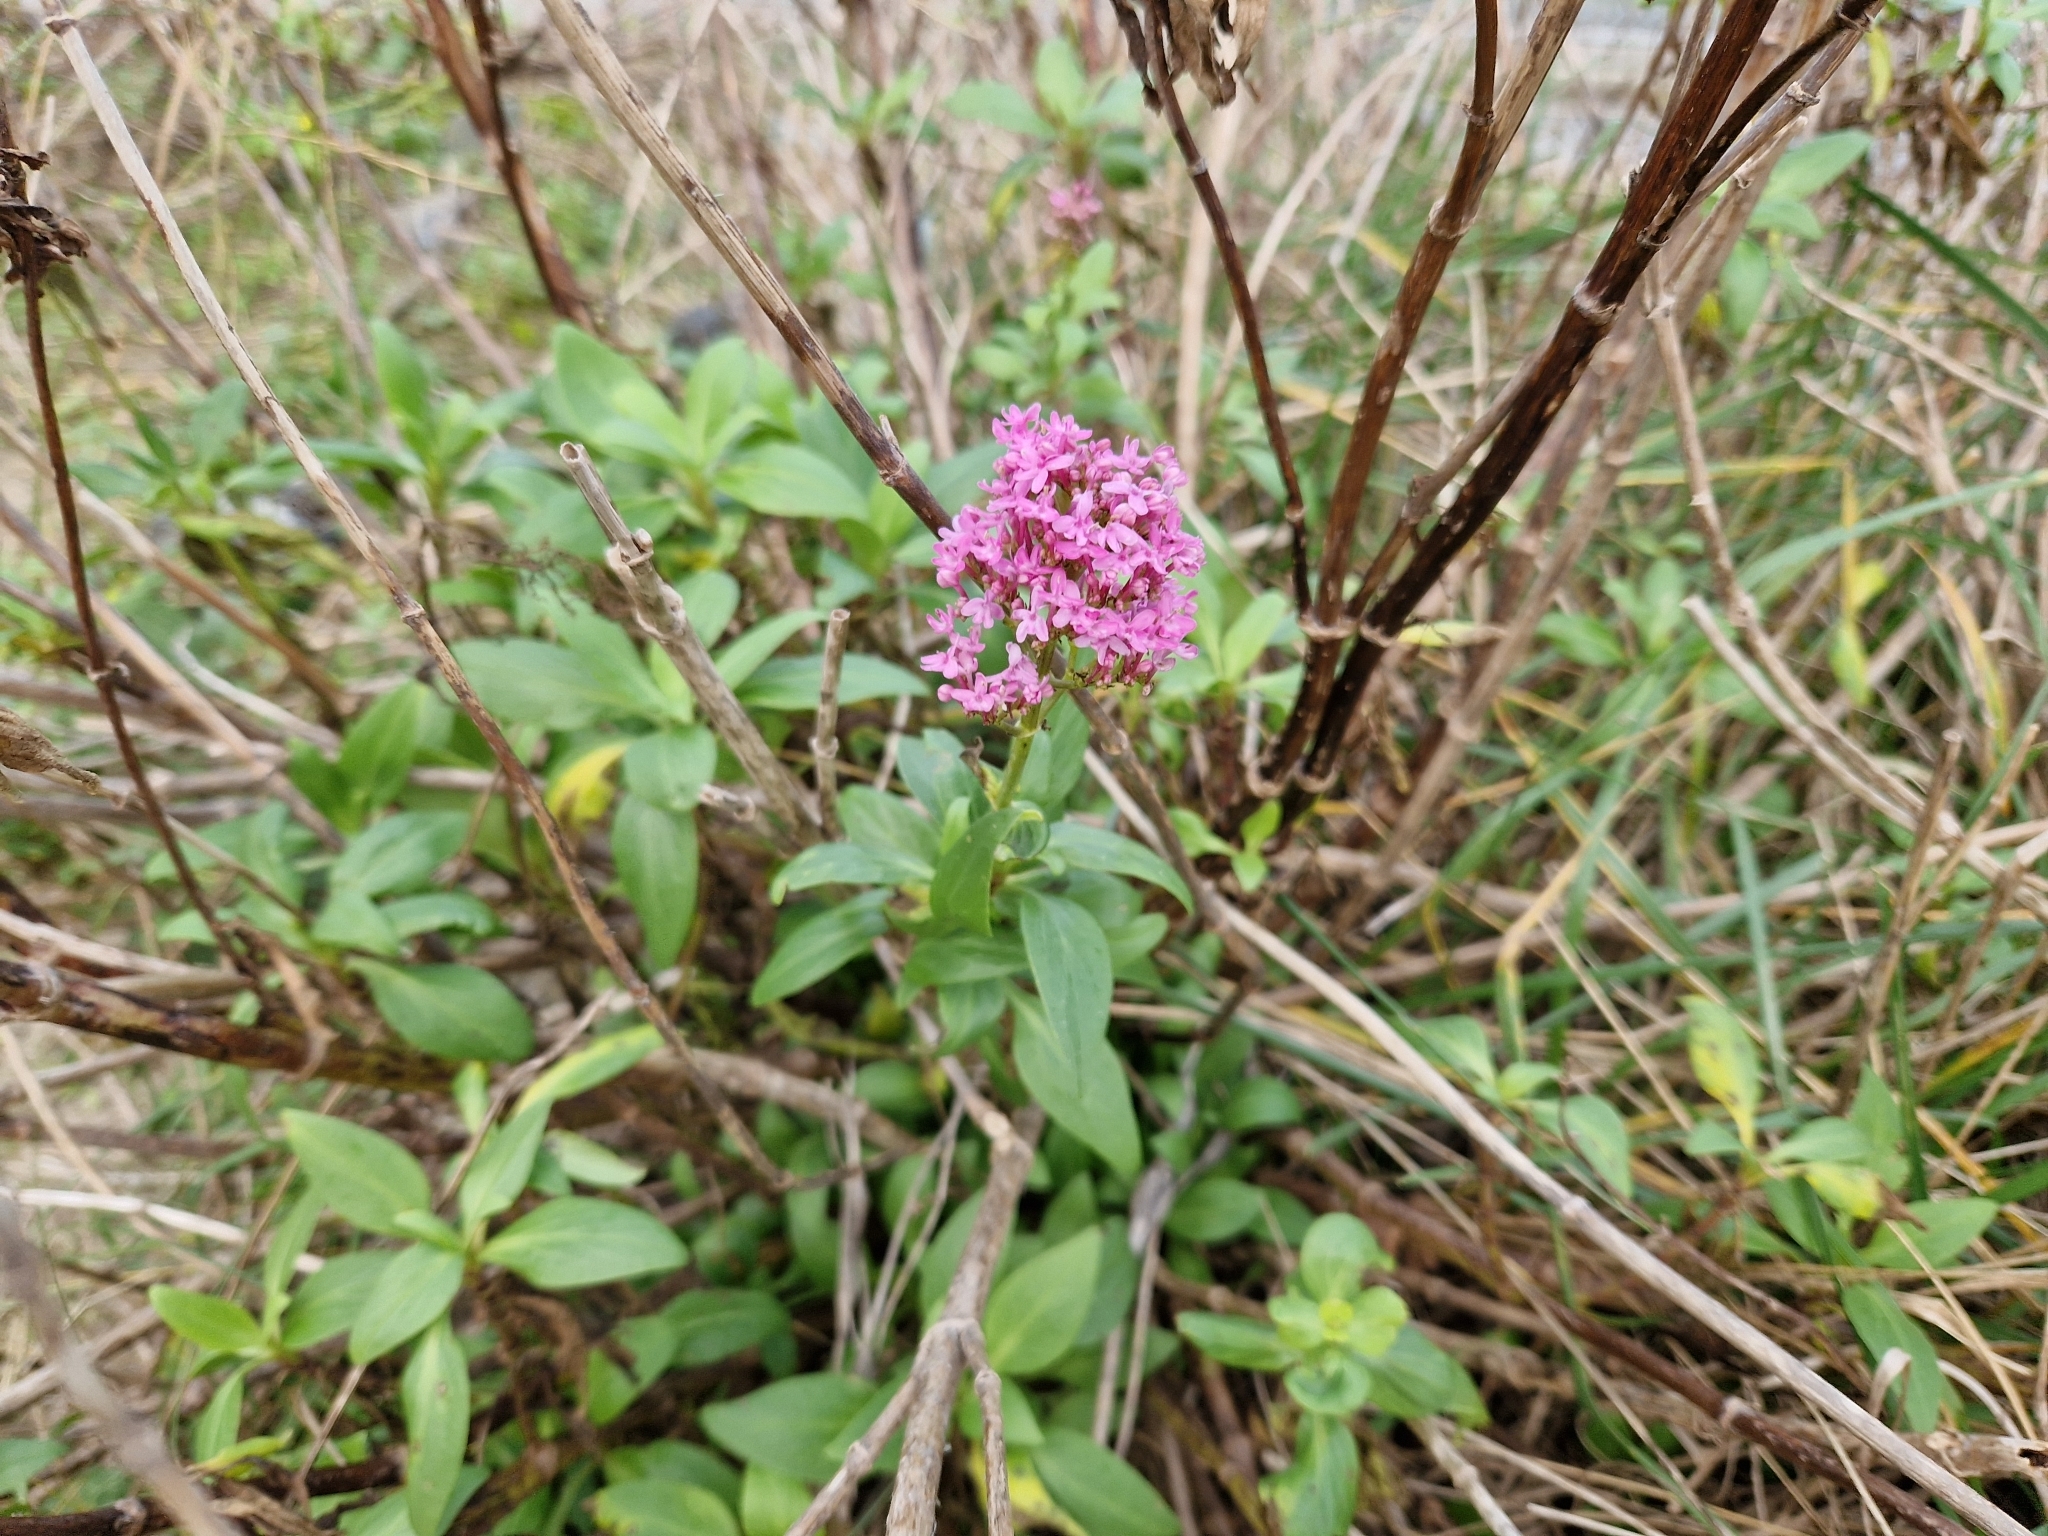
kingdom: Plantae
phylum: Tracheophyta
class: Magnoliopsida
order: Dipsacales
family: Caprifoliaceae
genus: Centranthus
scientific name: Centranthus ruber
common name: Red valerian
